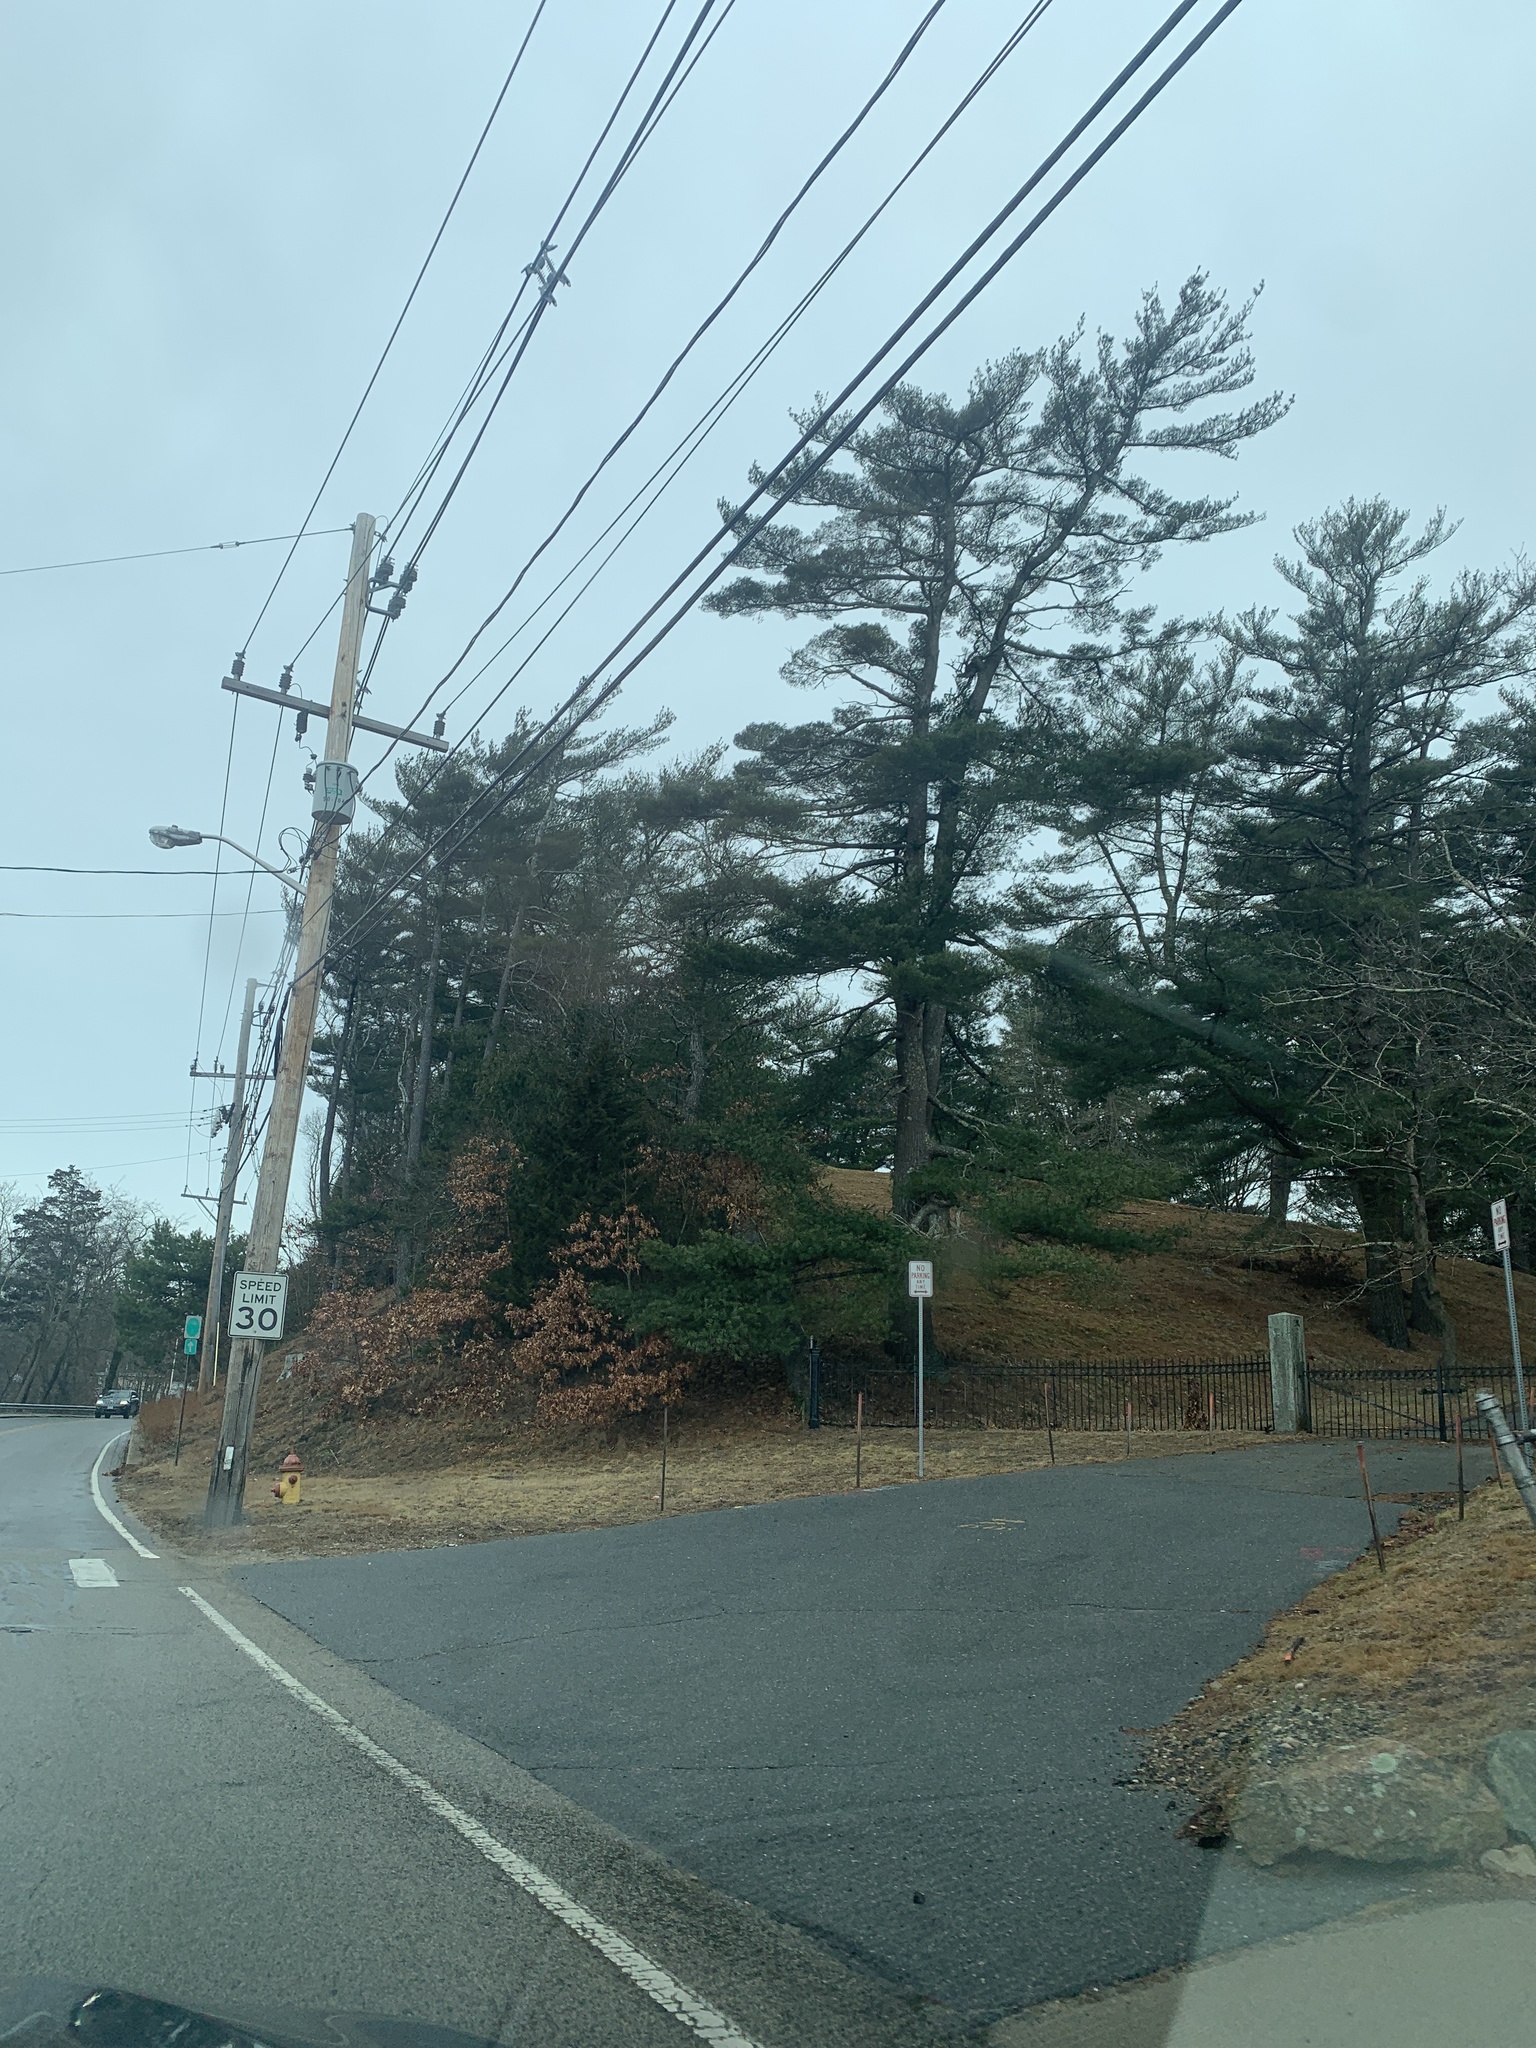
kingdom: Plantae
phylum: Tracheophyta
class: Pinopsida
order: Pinales
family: Pinaceae
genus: Pinus
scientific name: Pinus strobus
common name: Weymouth pine
